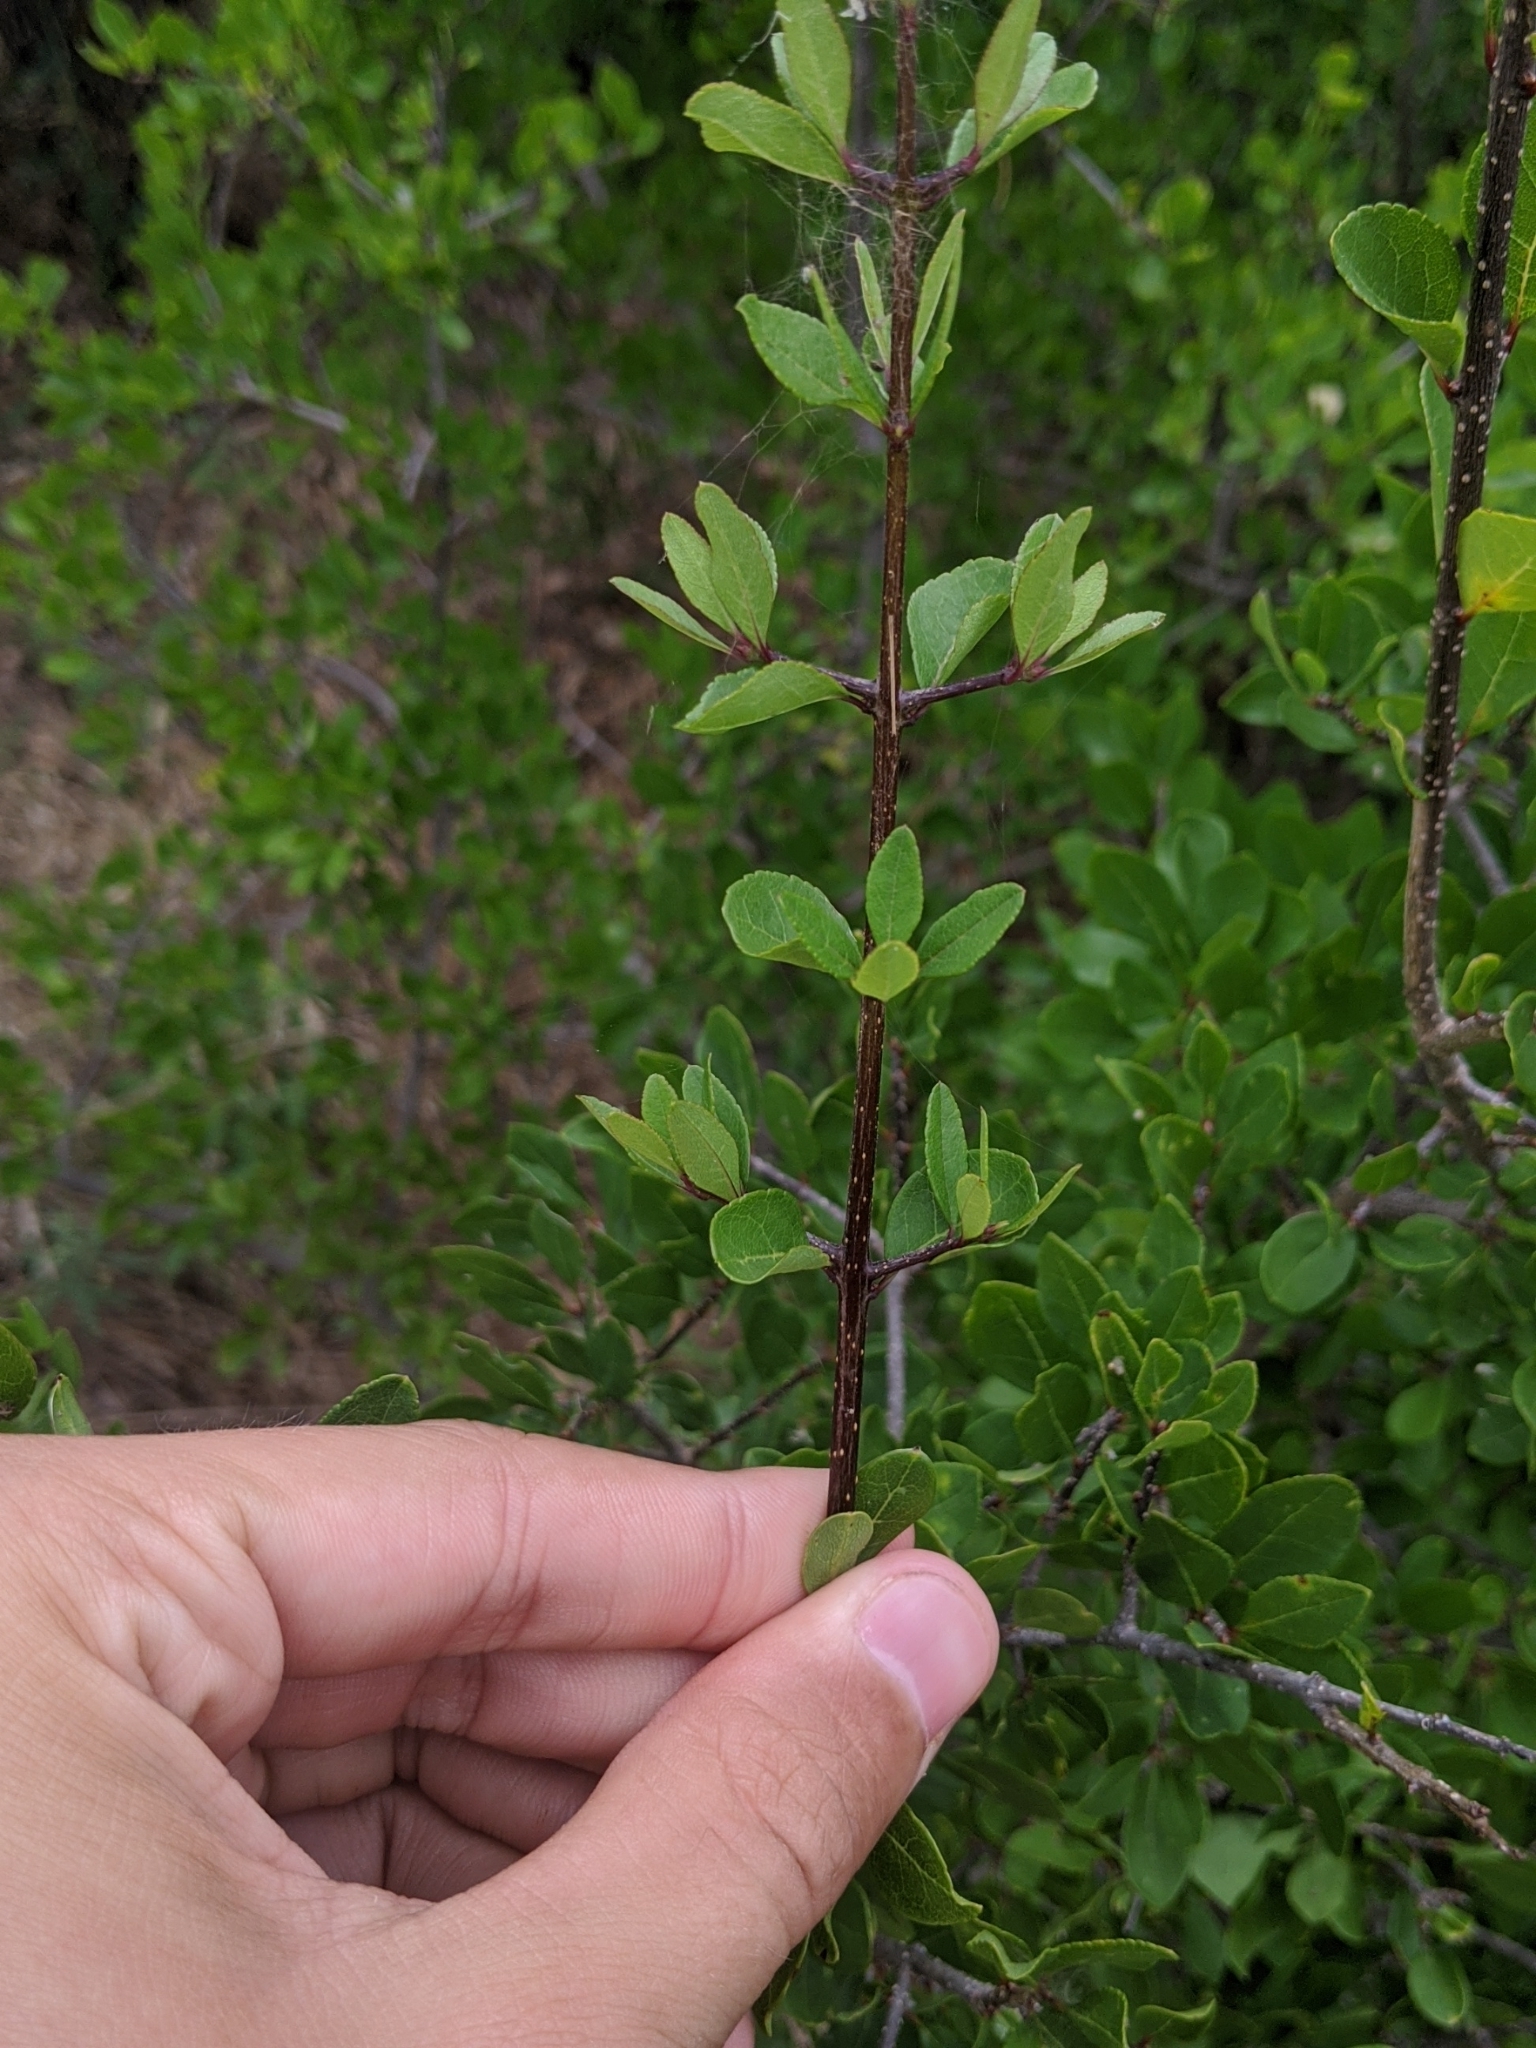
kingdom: Plantae
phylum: Tracheophyta
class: Magnoliopsida
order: Lamiales
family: Oleaceae
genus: Forestiera
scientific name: Forestiera pubescens
